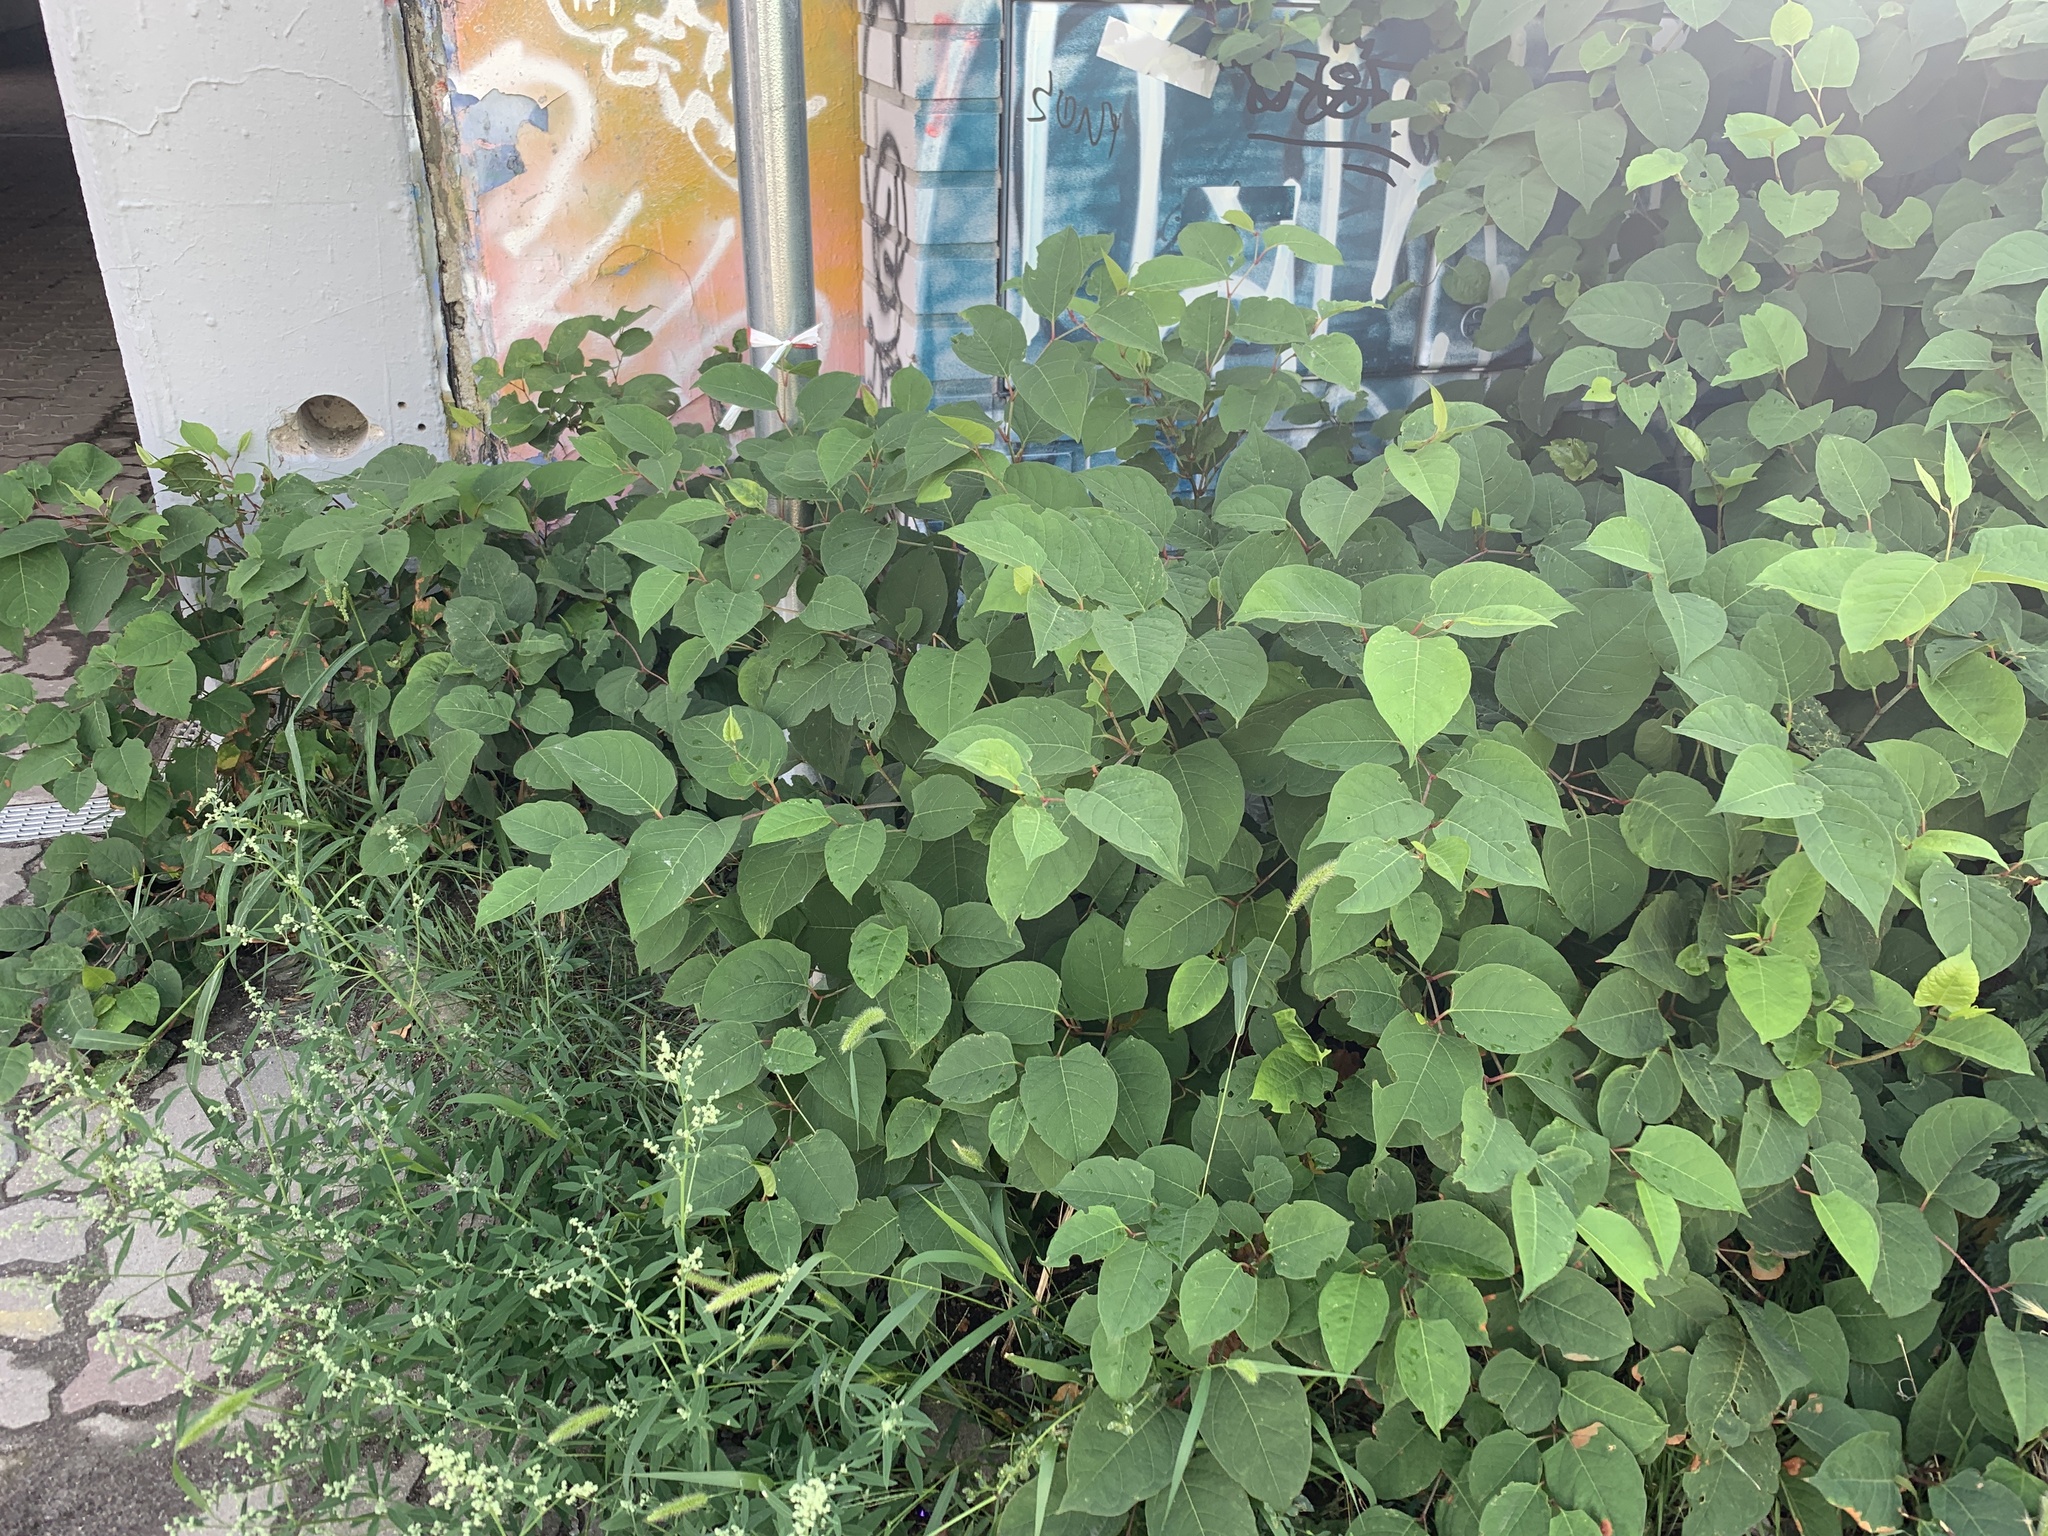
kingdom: Plantae
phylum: Tracheophyta
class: Magnoliopsida
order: Caryophyllales
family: Polygonaceae
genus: Reynoutria
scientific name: Reynoutria japonica
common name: Japanese knotweed
